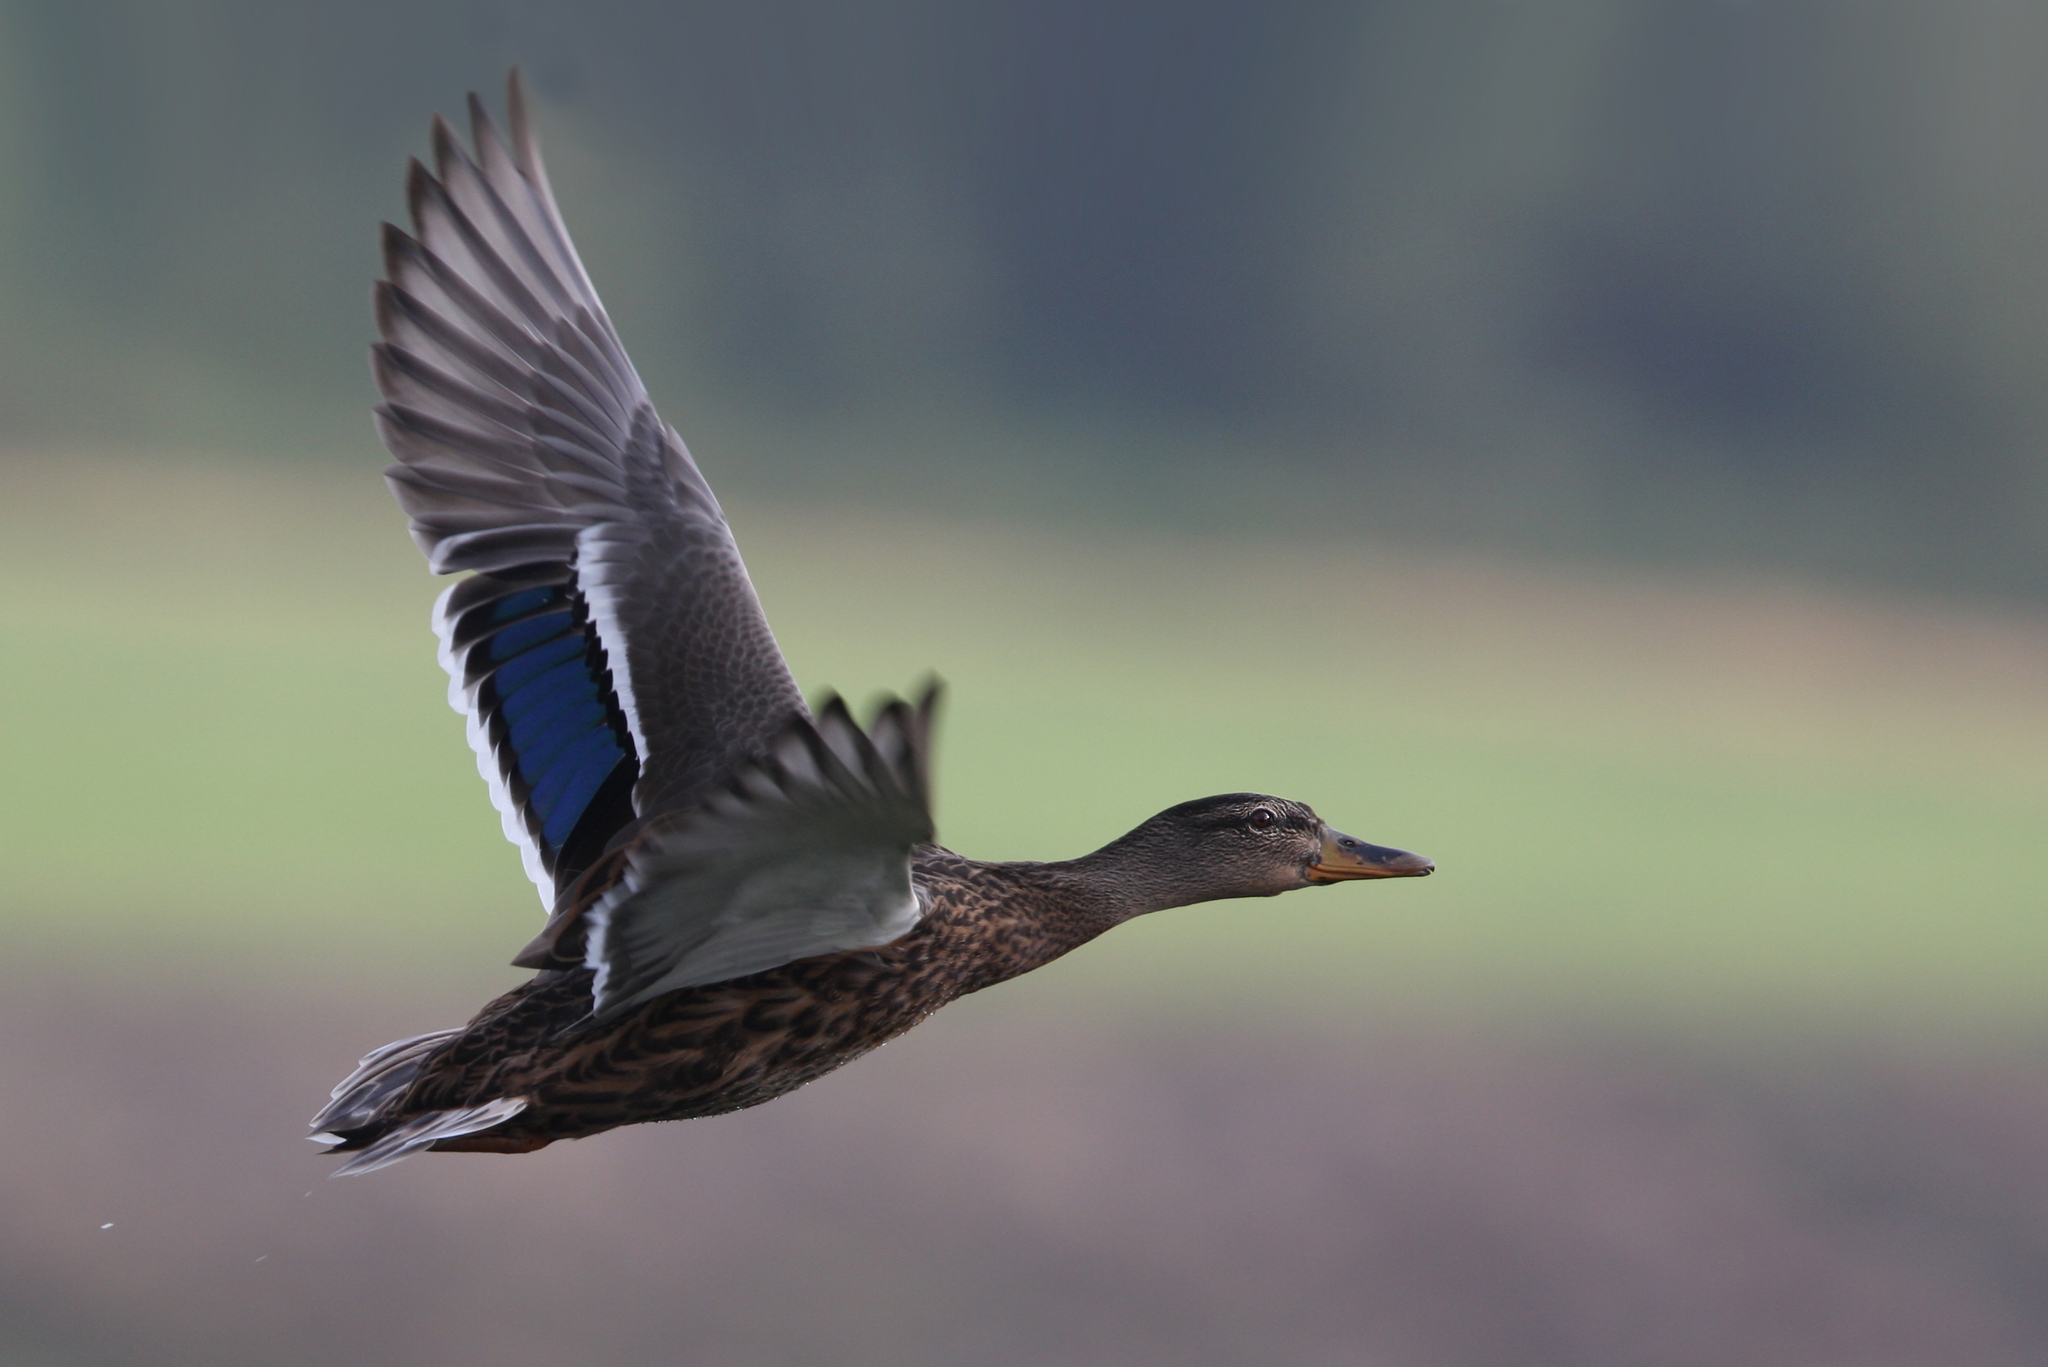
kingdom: Animalia
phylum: Chordata
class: Aves
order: Anseriformes
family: Anatidae
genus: Anas
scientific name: Anas platyrhynchos
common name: Mallard
